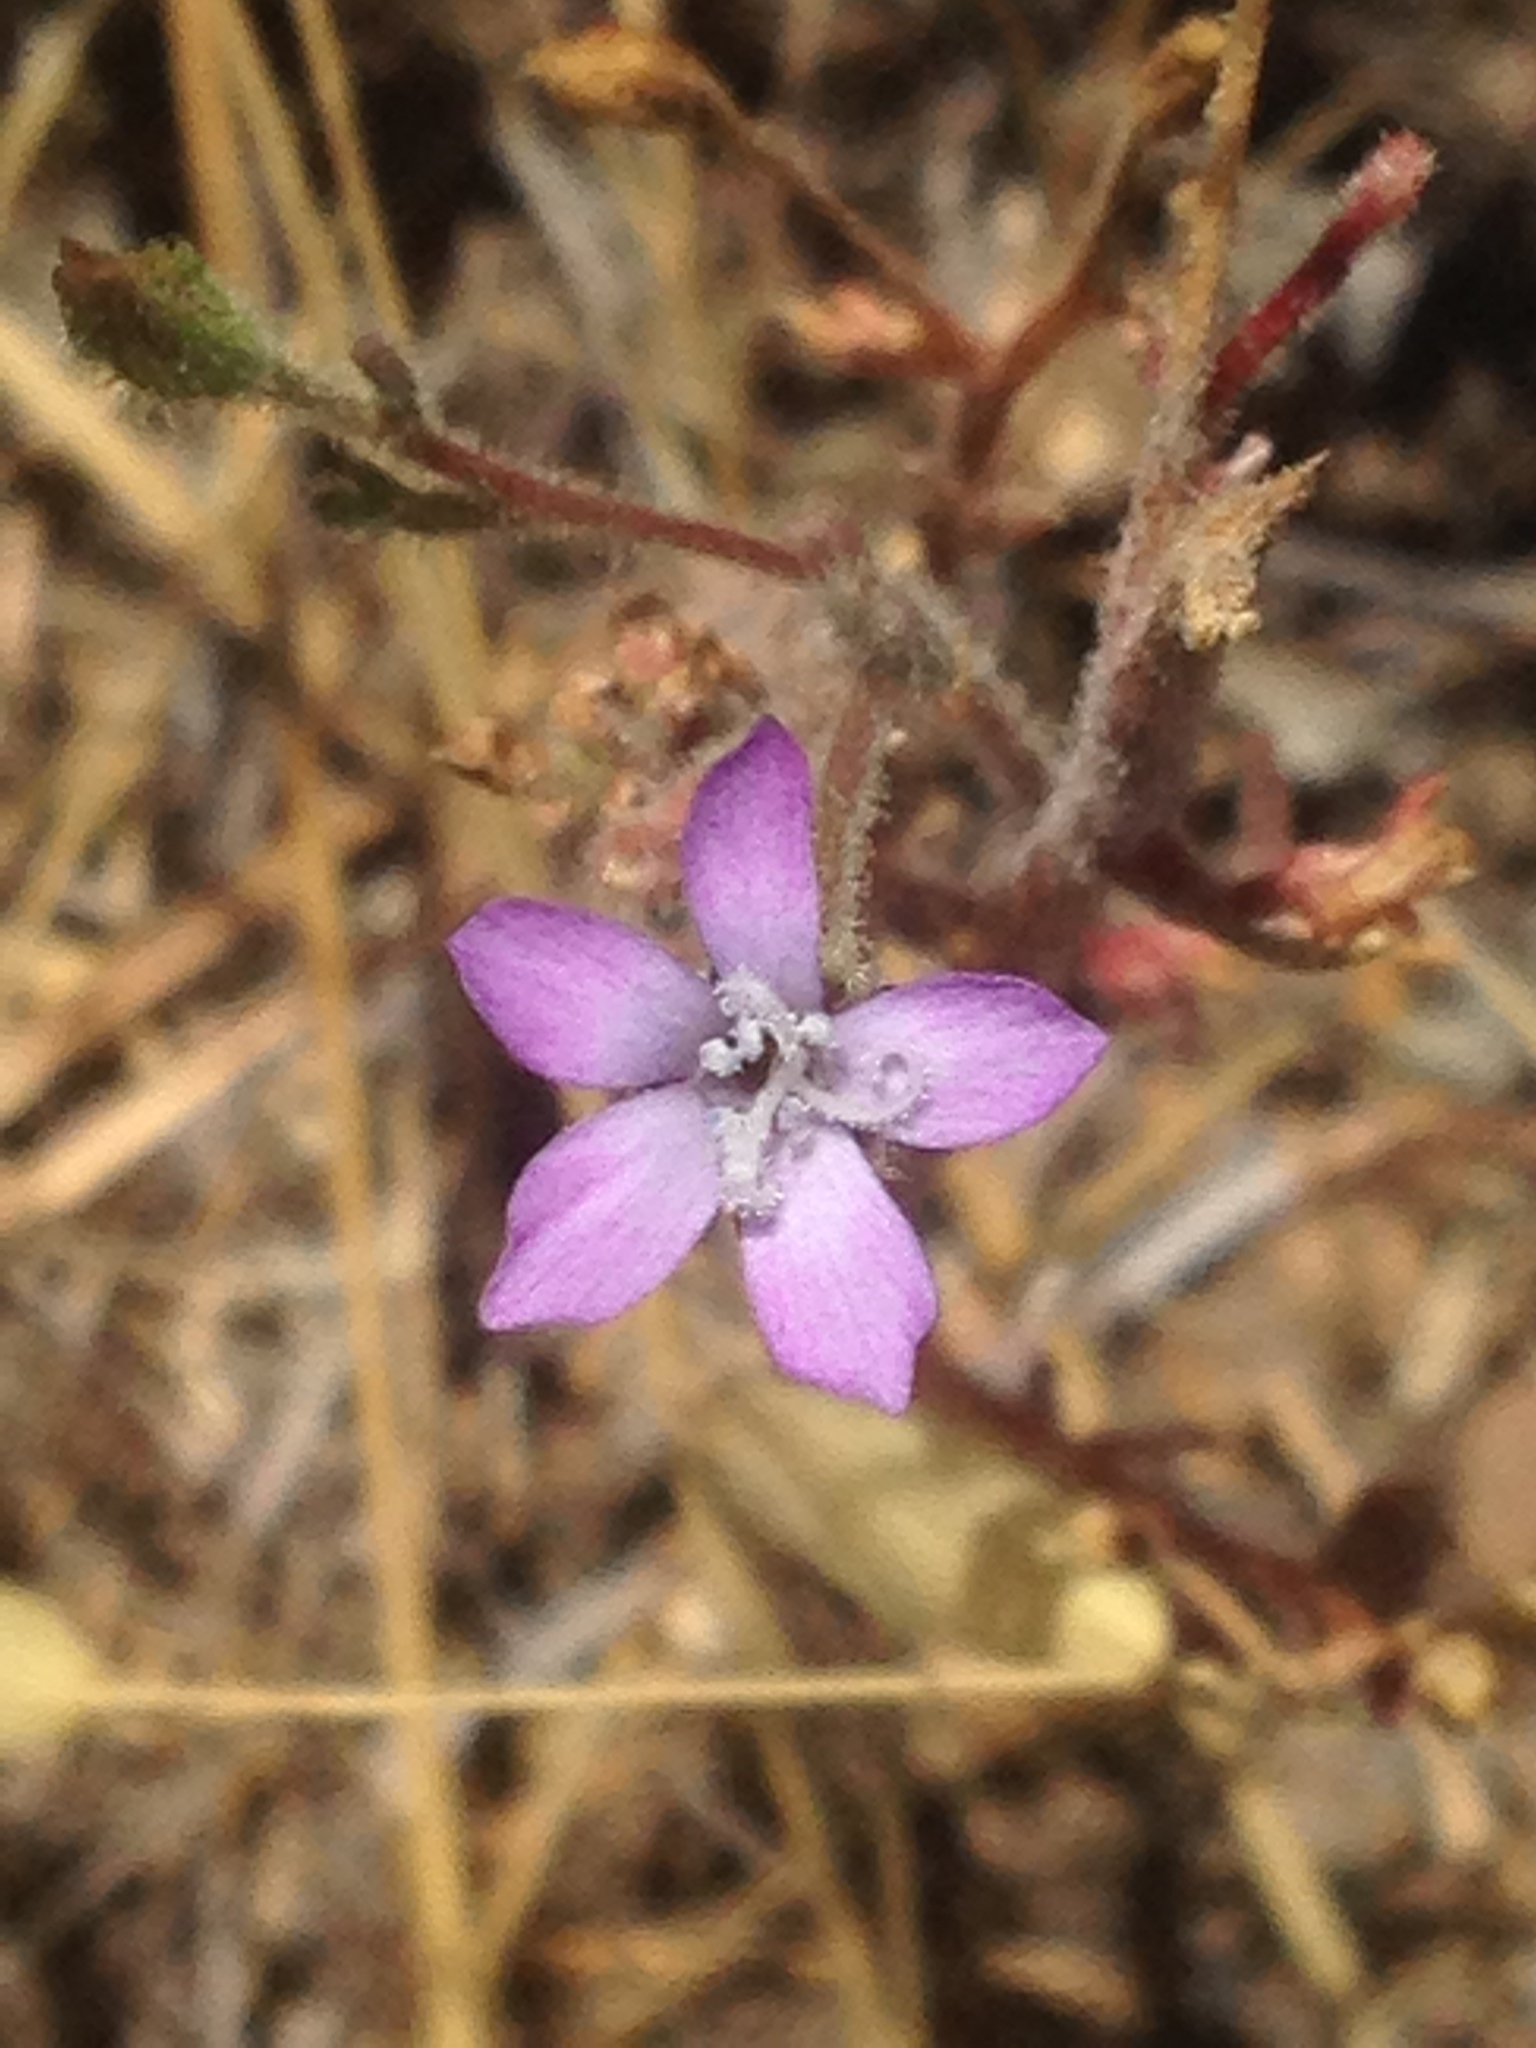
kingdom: Plantae
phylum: Tracheophyta
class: Magnoliopsida
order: Ericales
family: Polemoniaceae
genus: Gilia
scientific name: Gilia nevinii
